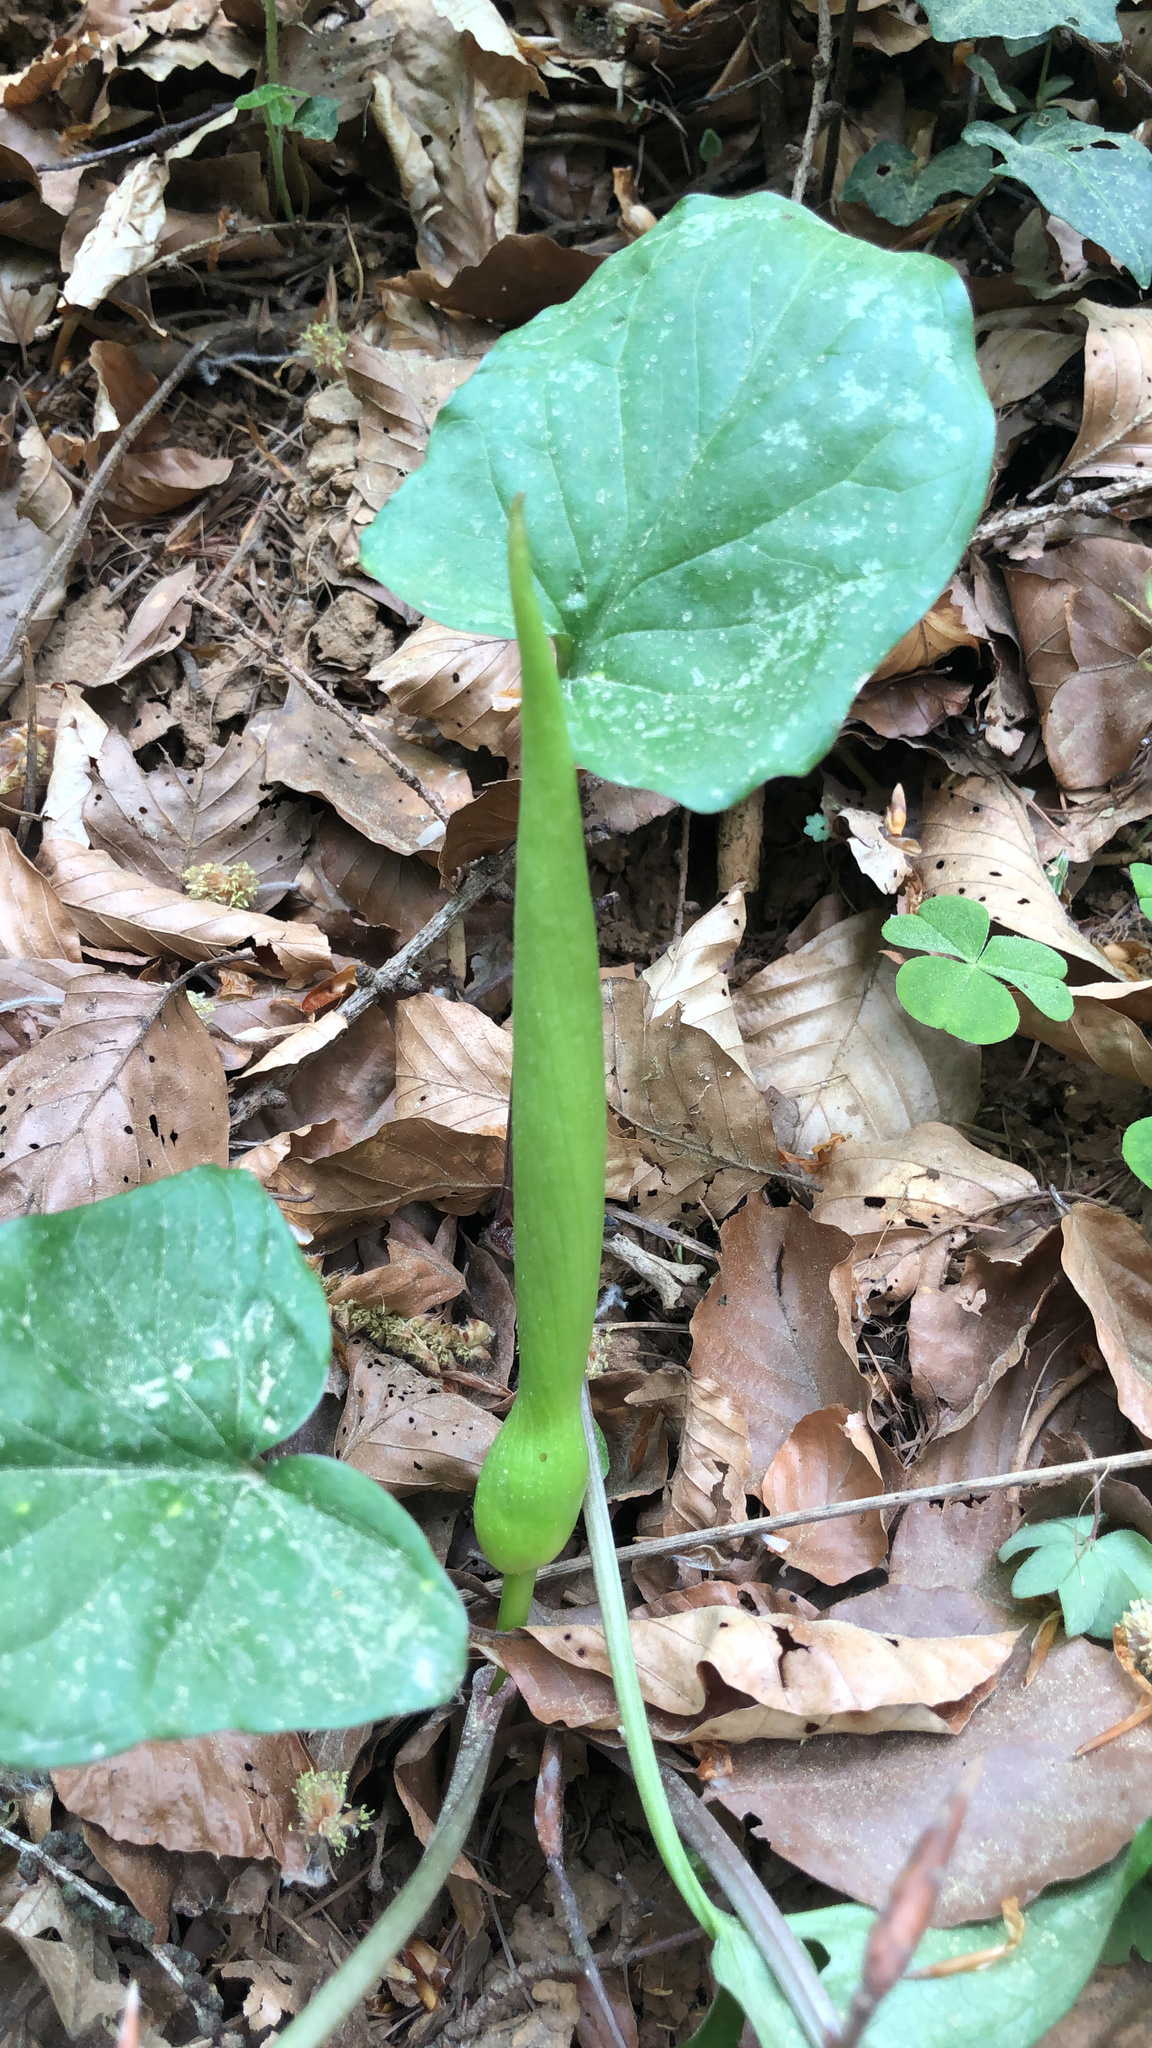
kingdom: Plantae
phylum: Tracheophyta
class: Liliopsida
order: Alismatales
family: Araceae
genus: Arum
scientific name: Arum maculatum
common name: Lords-and-ladies
